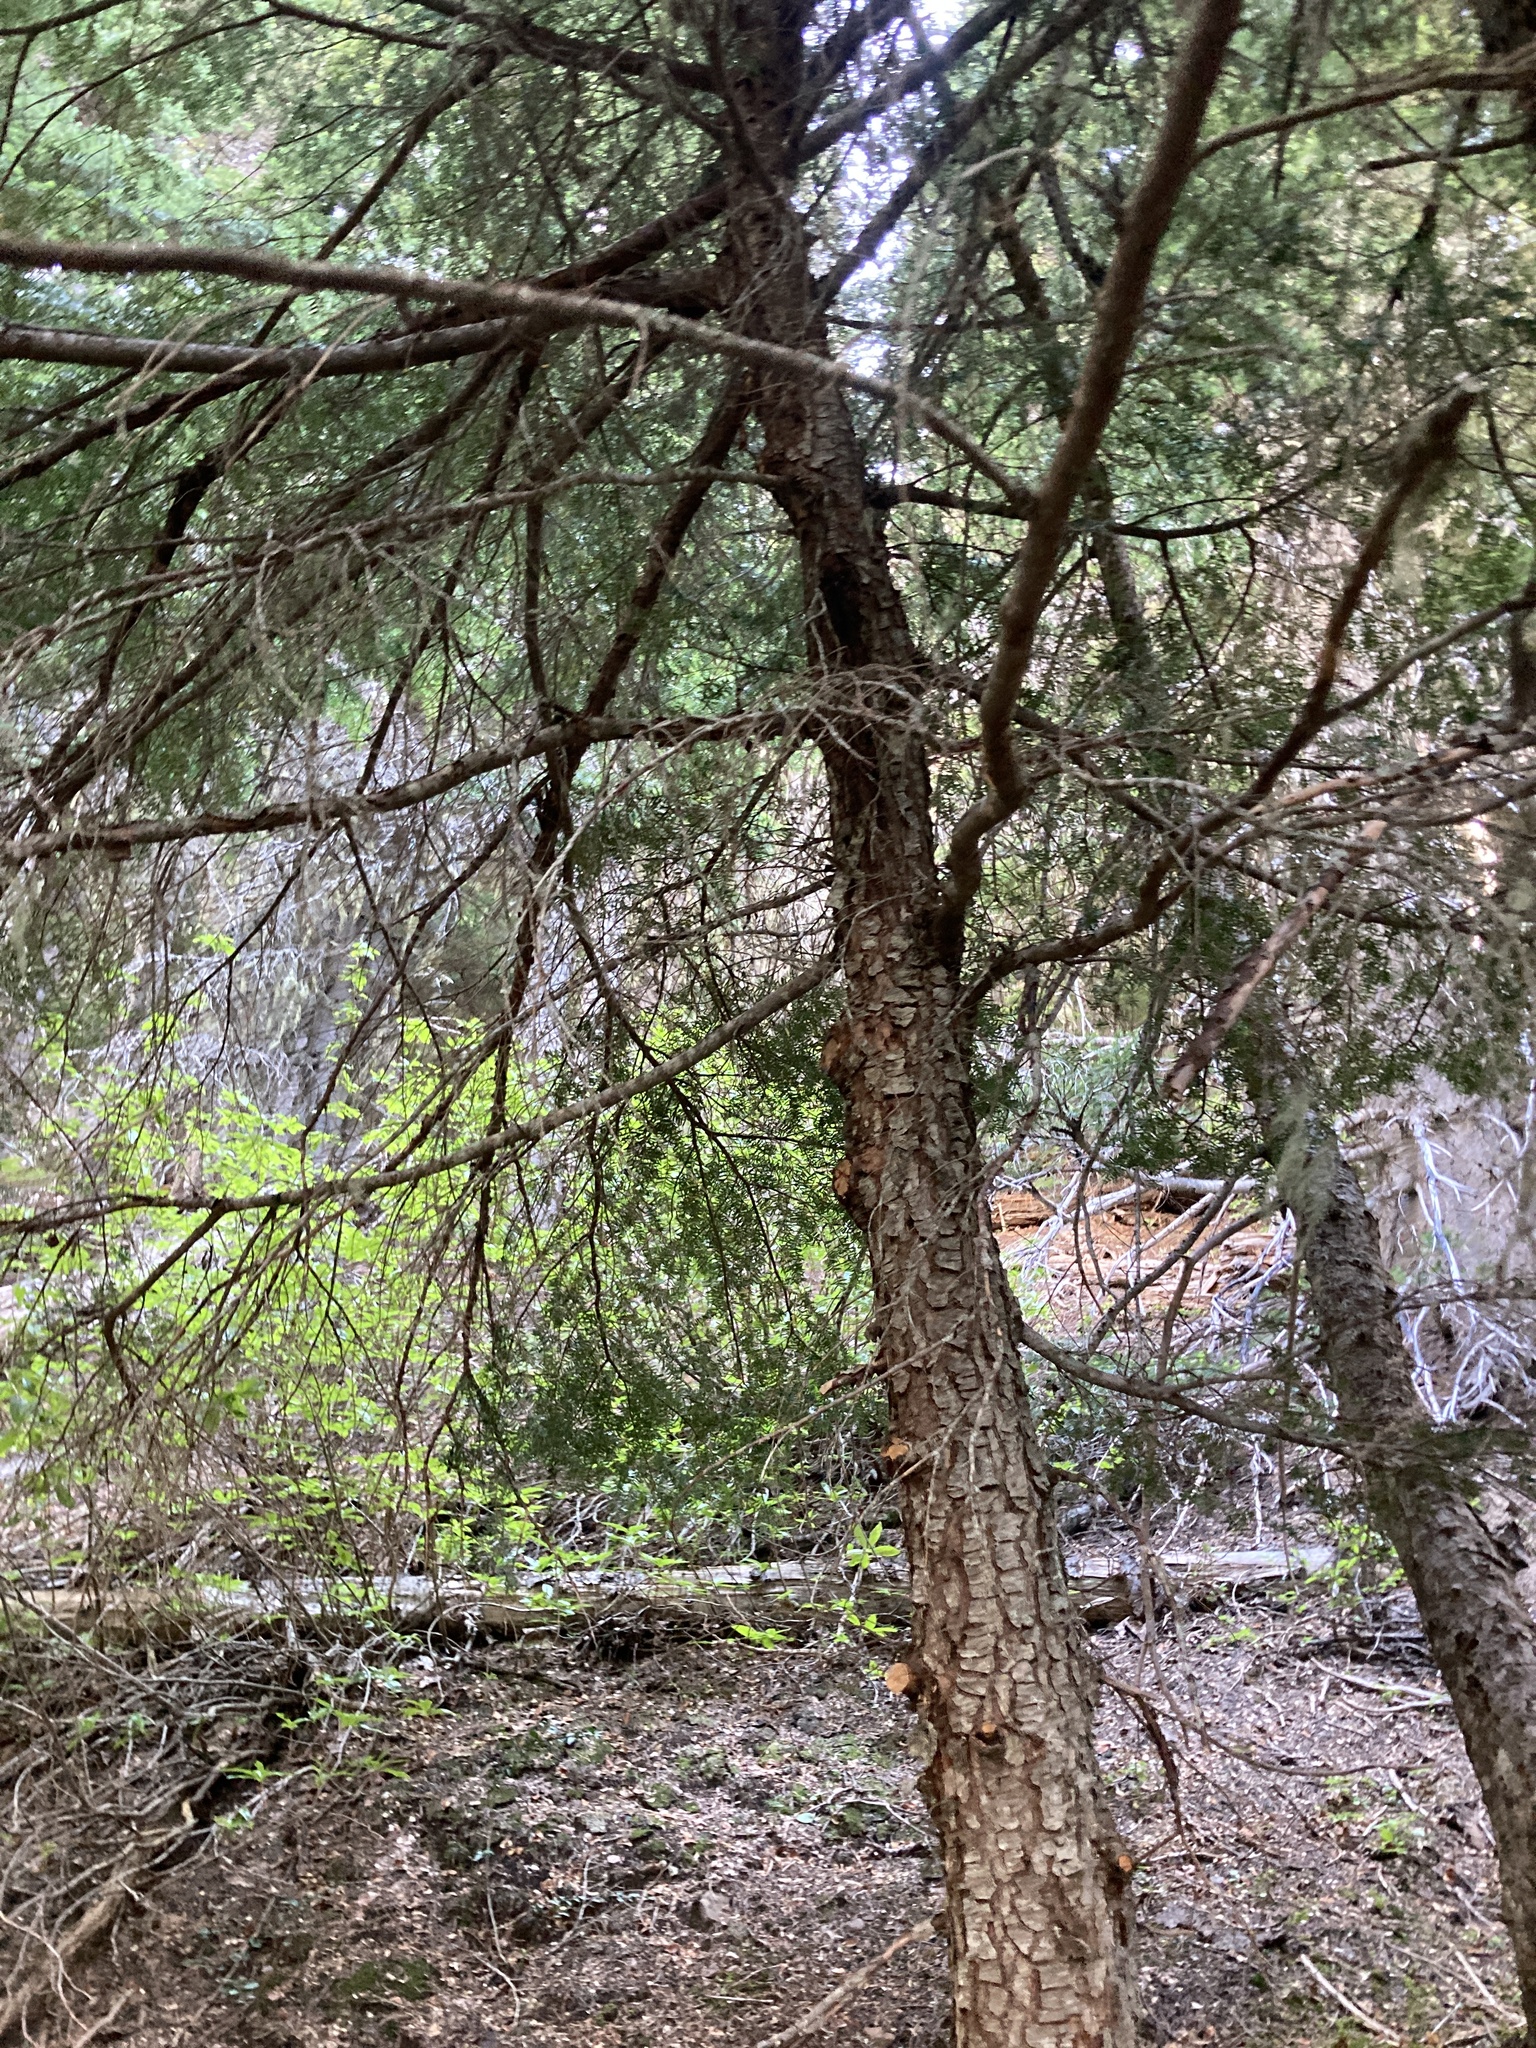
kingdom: Plantae
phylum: Tracheophyta
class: Pinopsida
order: Pinales
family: Pinaceae
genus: Tsuga
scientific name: Tsuga heterophylla
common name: Western hemlock
